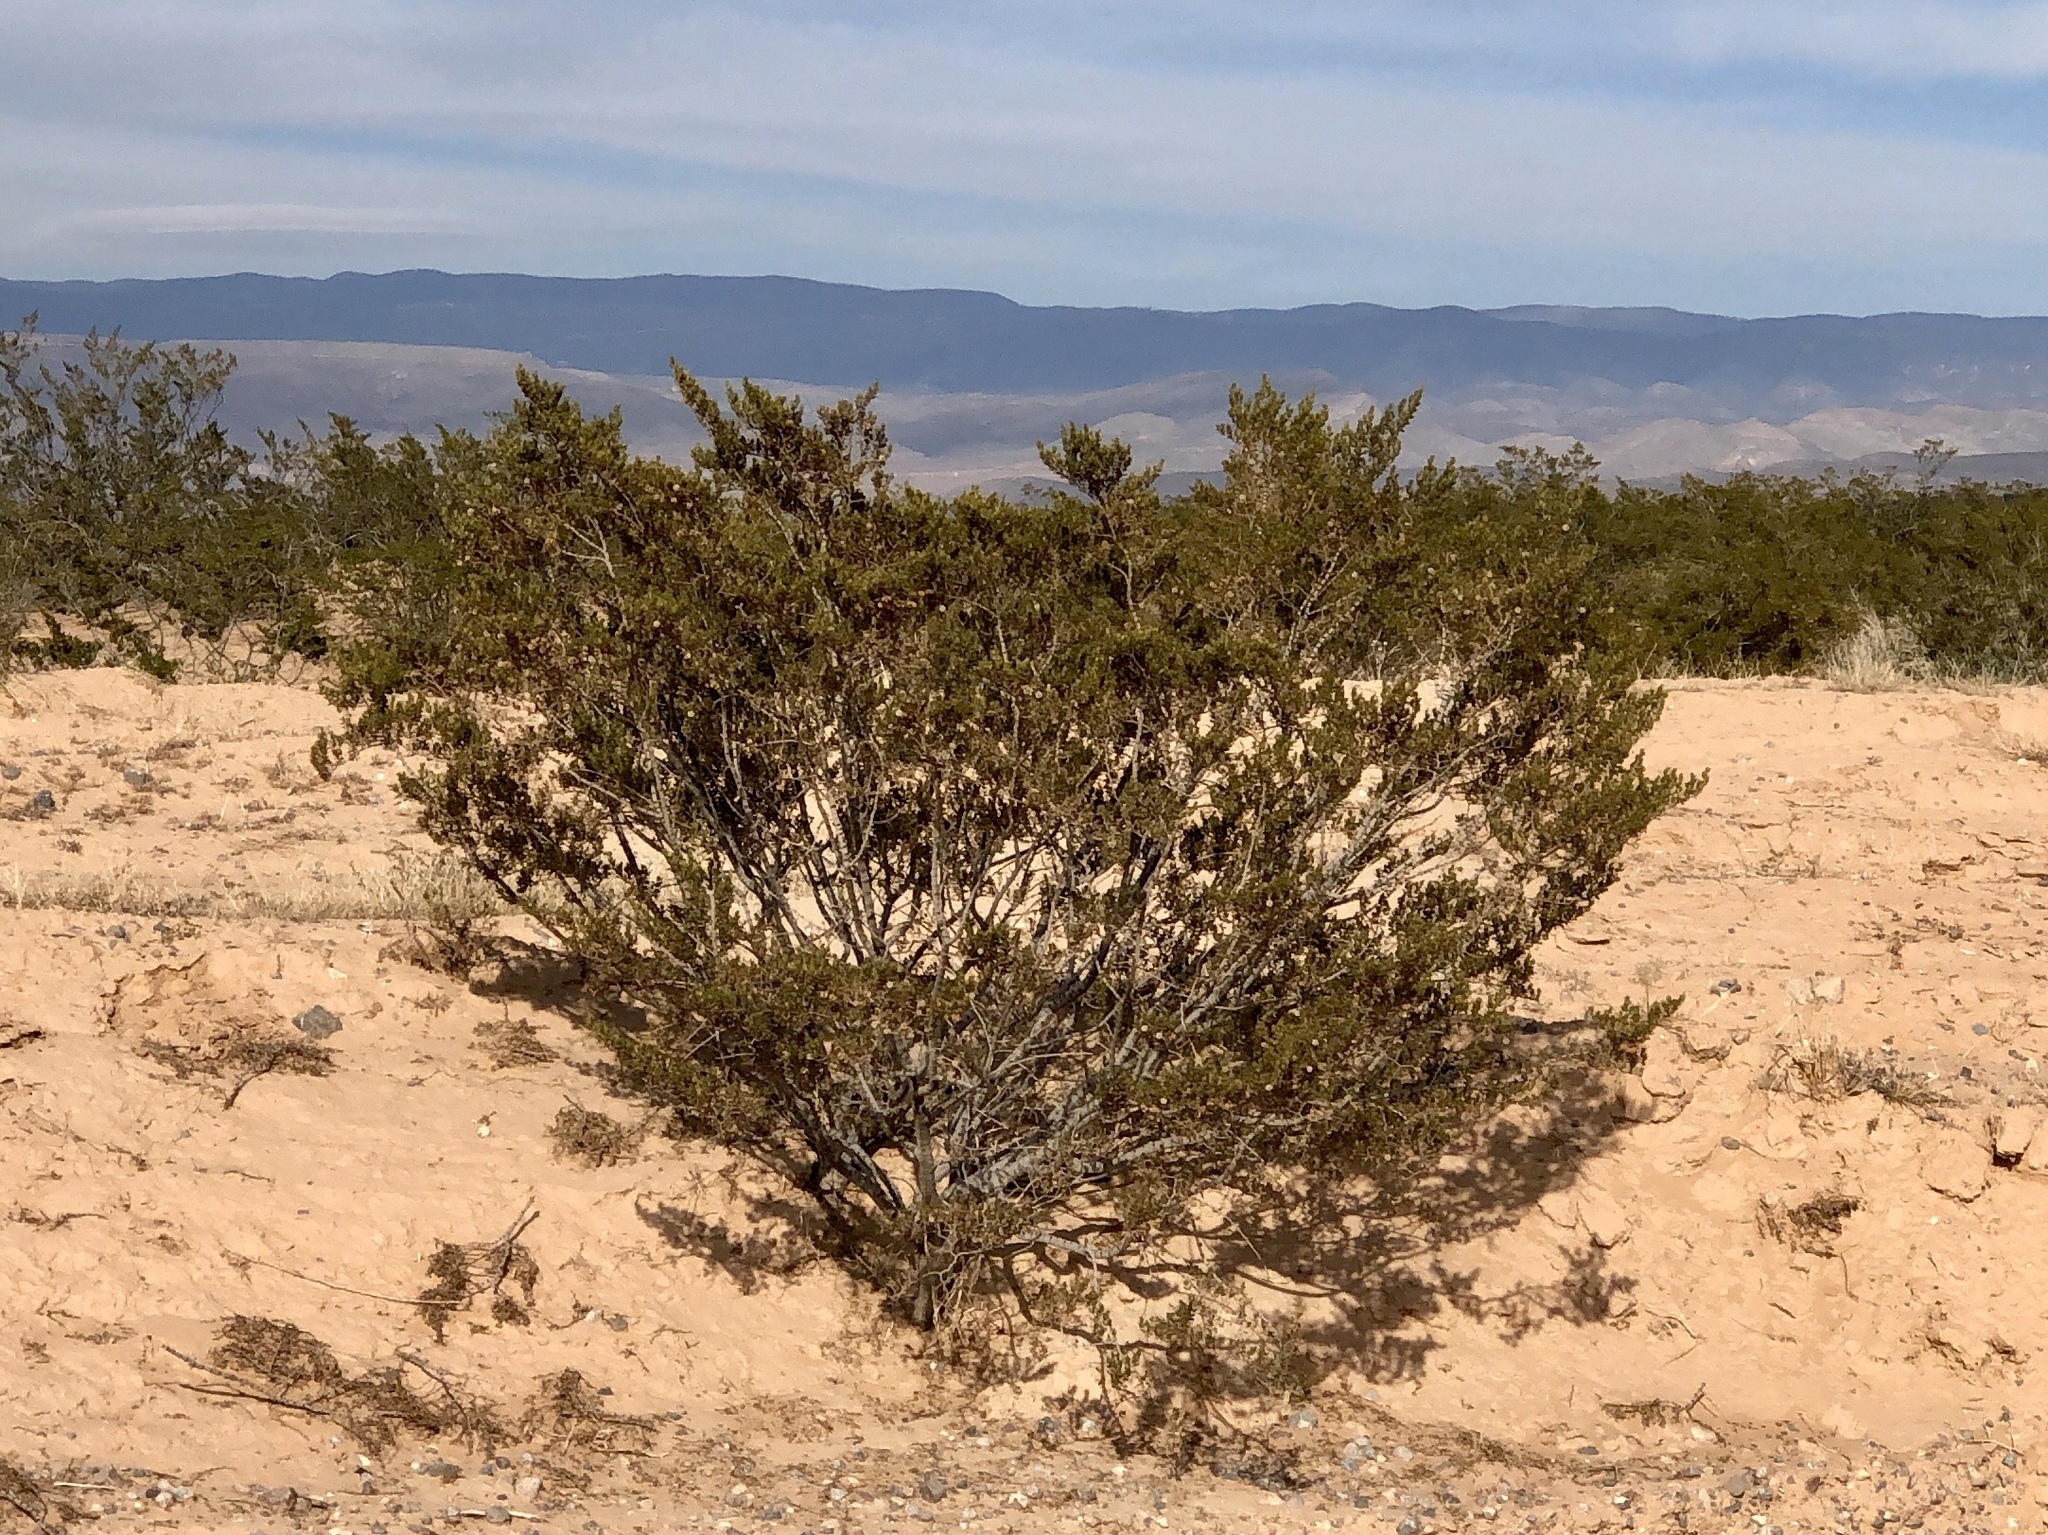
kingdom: Plantae
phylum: Tracheophyta
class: Magnoliopsida
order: Zygophyllales
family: Zygophyllaceae
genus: Larrea
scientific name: Larrea tridentata
